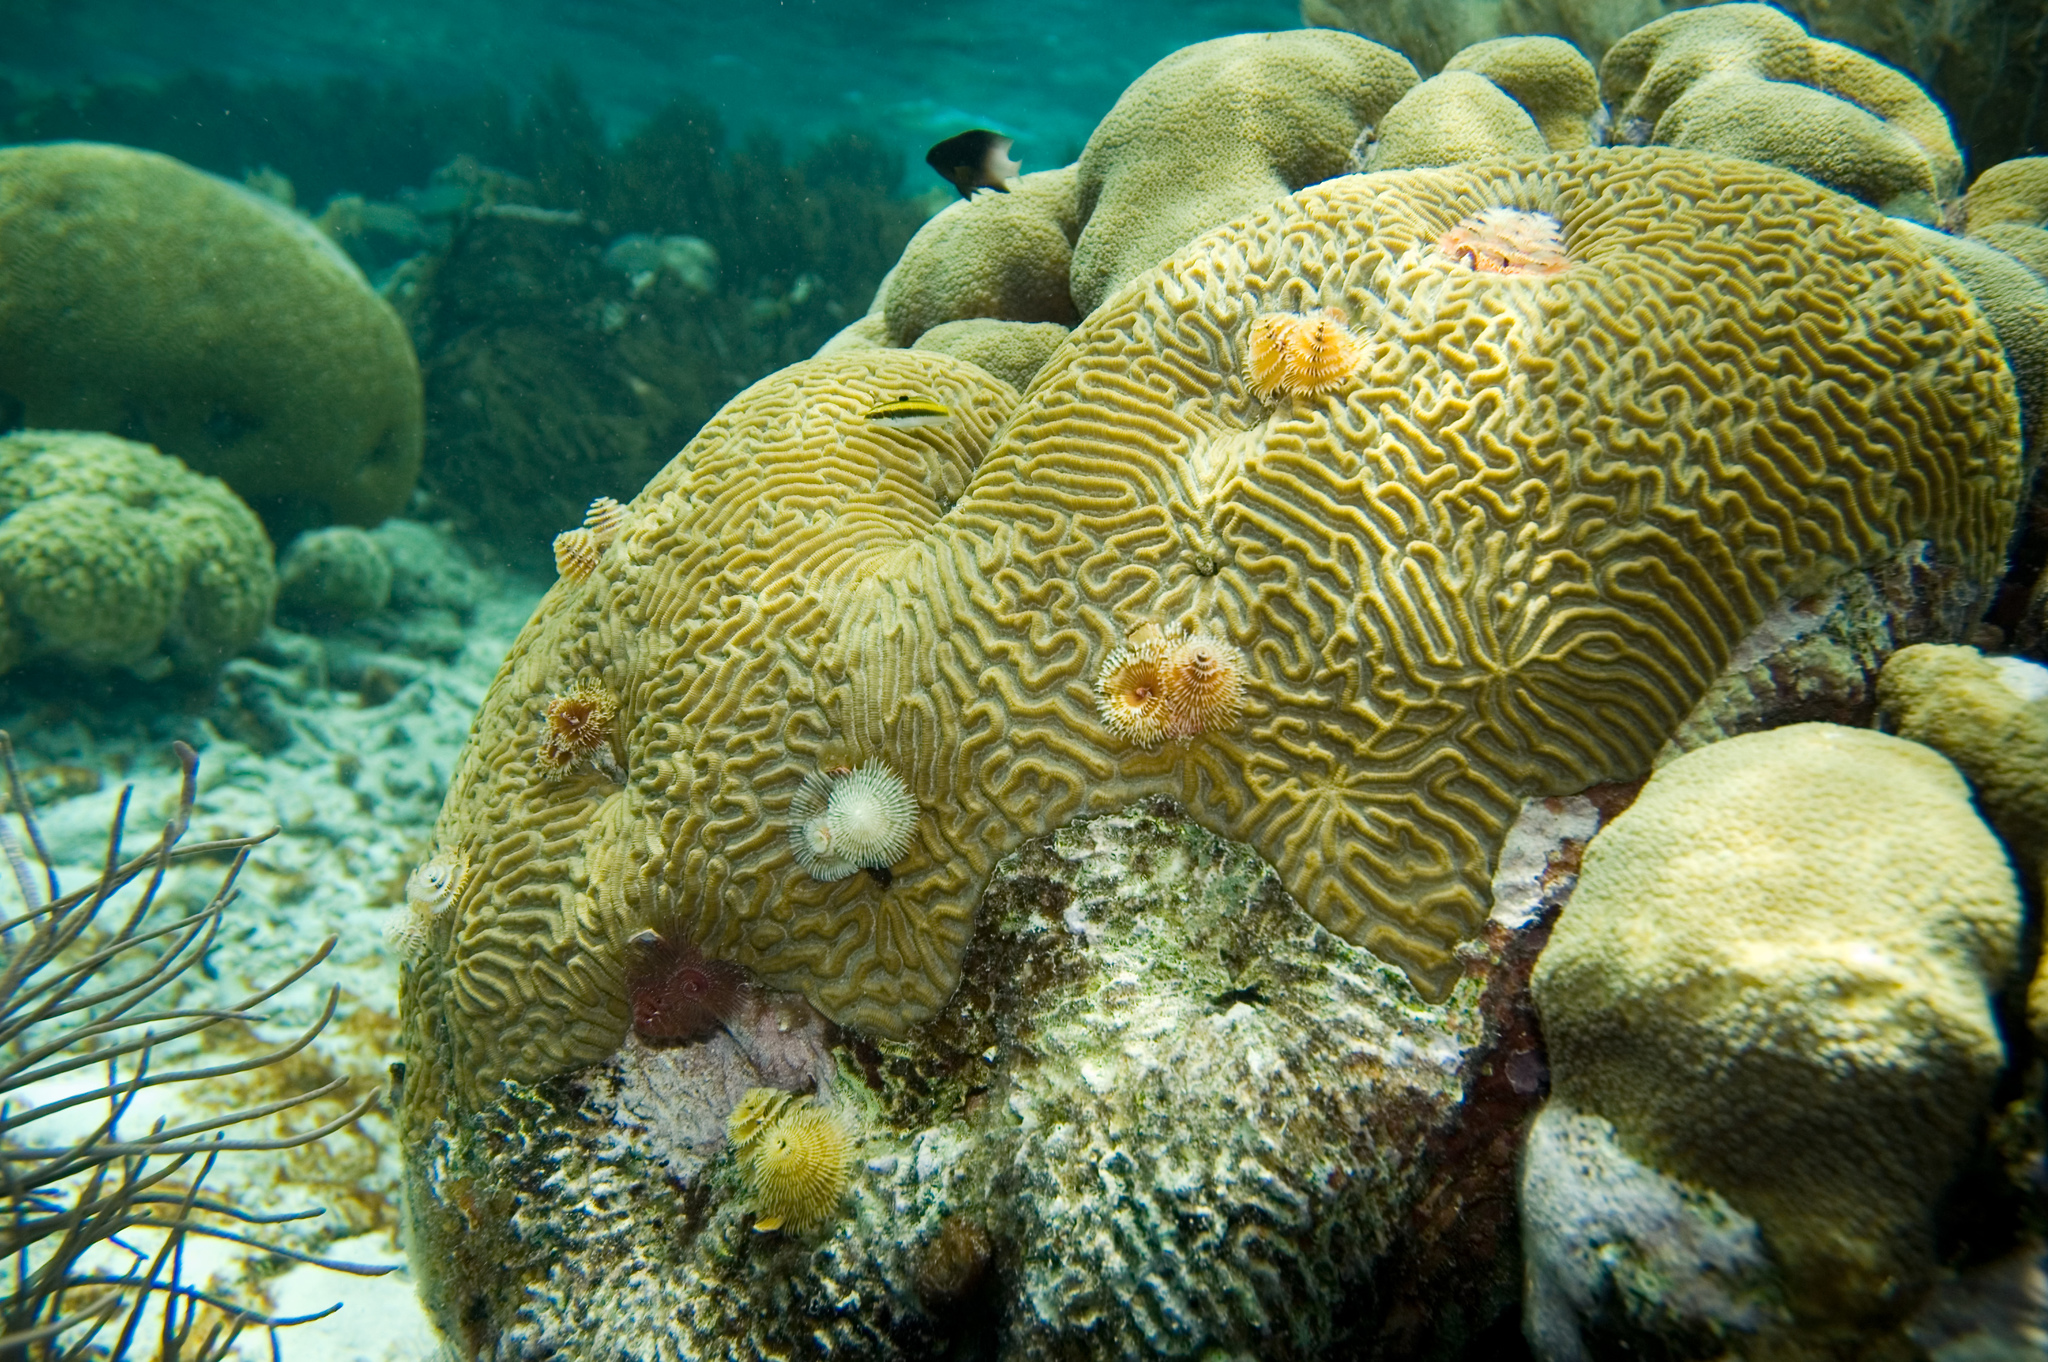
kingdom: Animalia
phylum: Cnidaria
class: Anthozoa
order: Scleractinia
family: Faviidae
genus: Pseudodiploria
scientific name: Pseudodiploria strigosa
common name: Symmetrical brain coral
